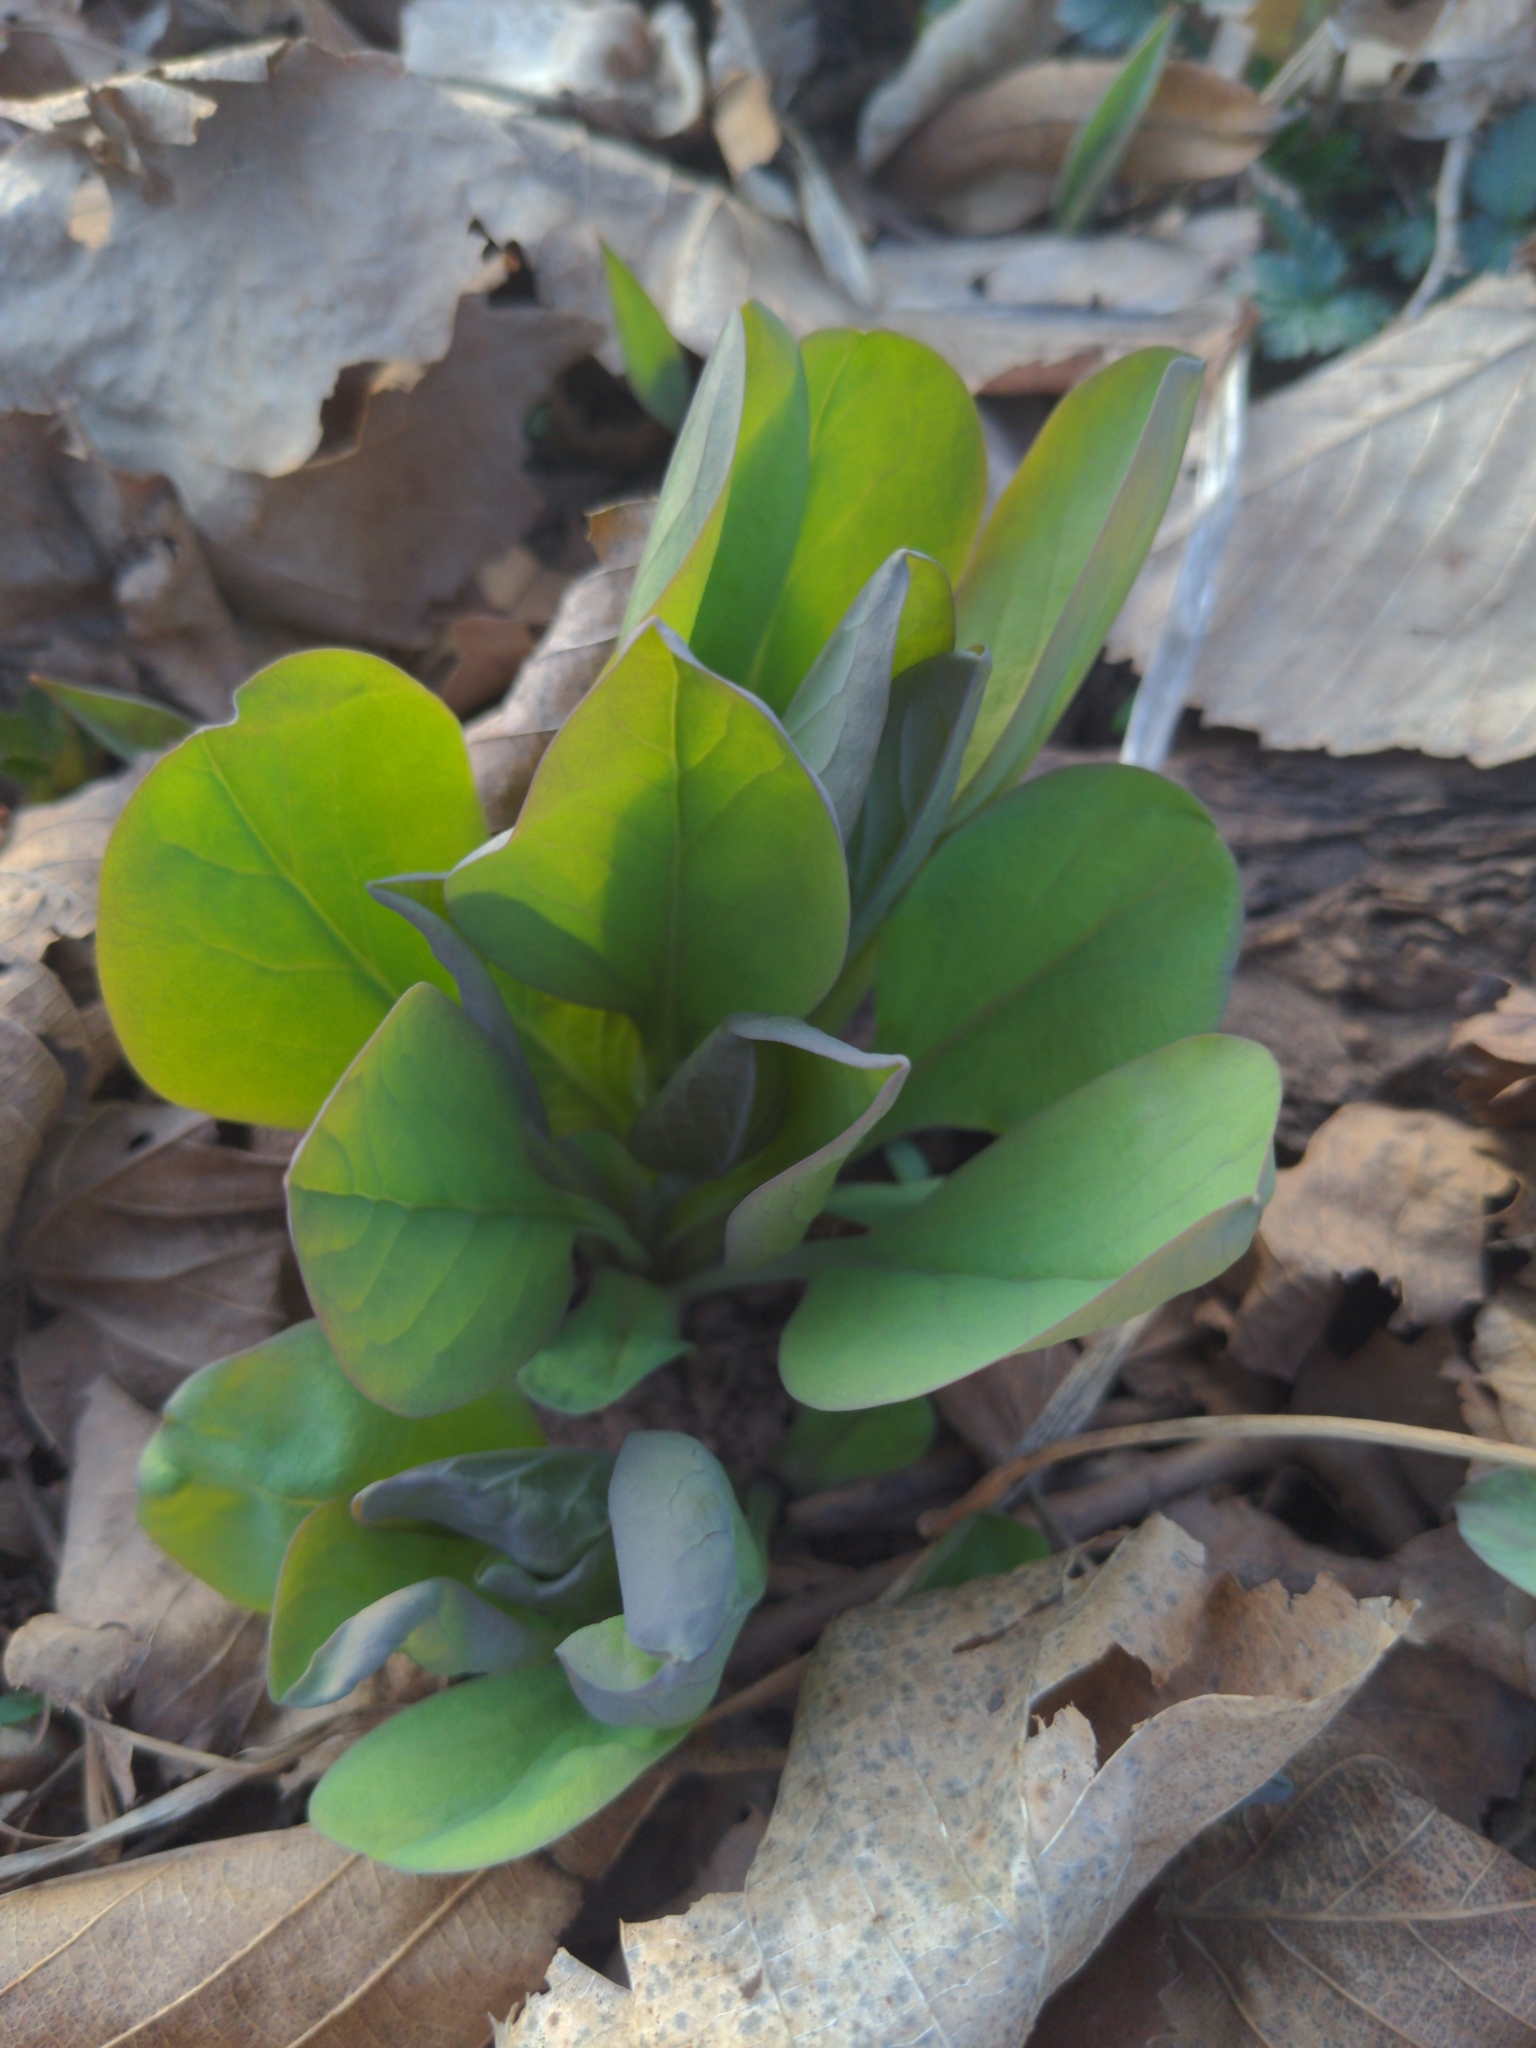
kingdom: Plantae
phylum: Tracheophyta
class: Magnoliopsida
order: Boraginales
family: Boraginaceae
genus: Mertensia
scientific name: Mertensia virginica
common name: Virginia bluebells
